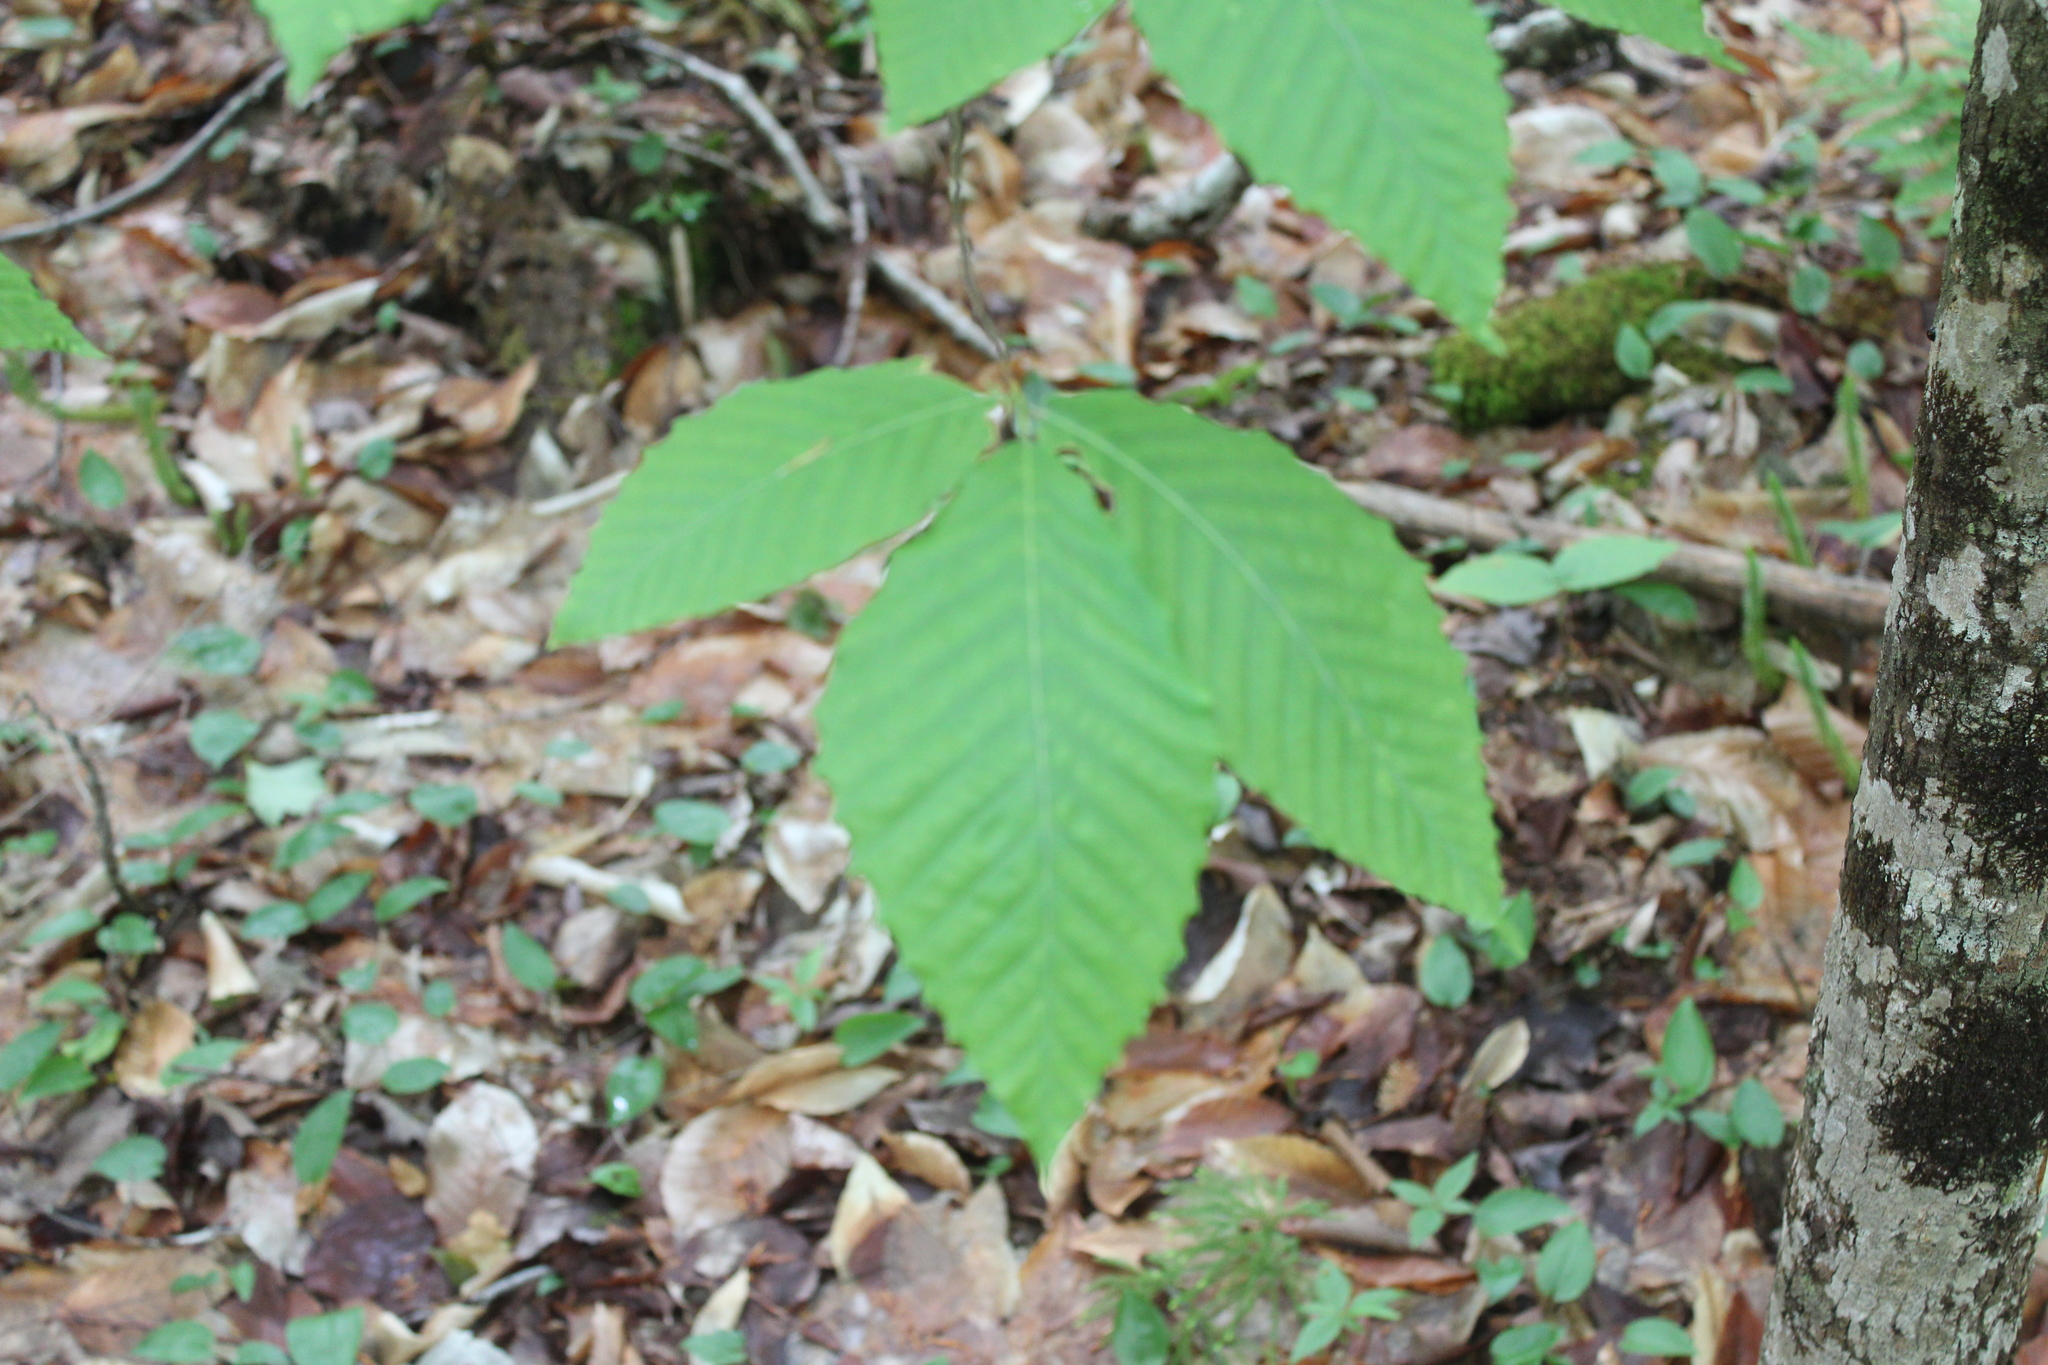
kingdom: Plantae
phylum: Tracheophyta
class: Magnoliopsida
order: Fagales
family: Fagaceae
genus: Fagus
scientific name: Fagus grandifolia
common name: American beech
